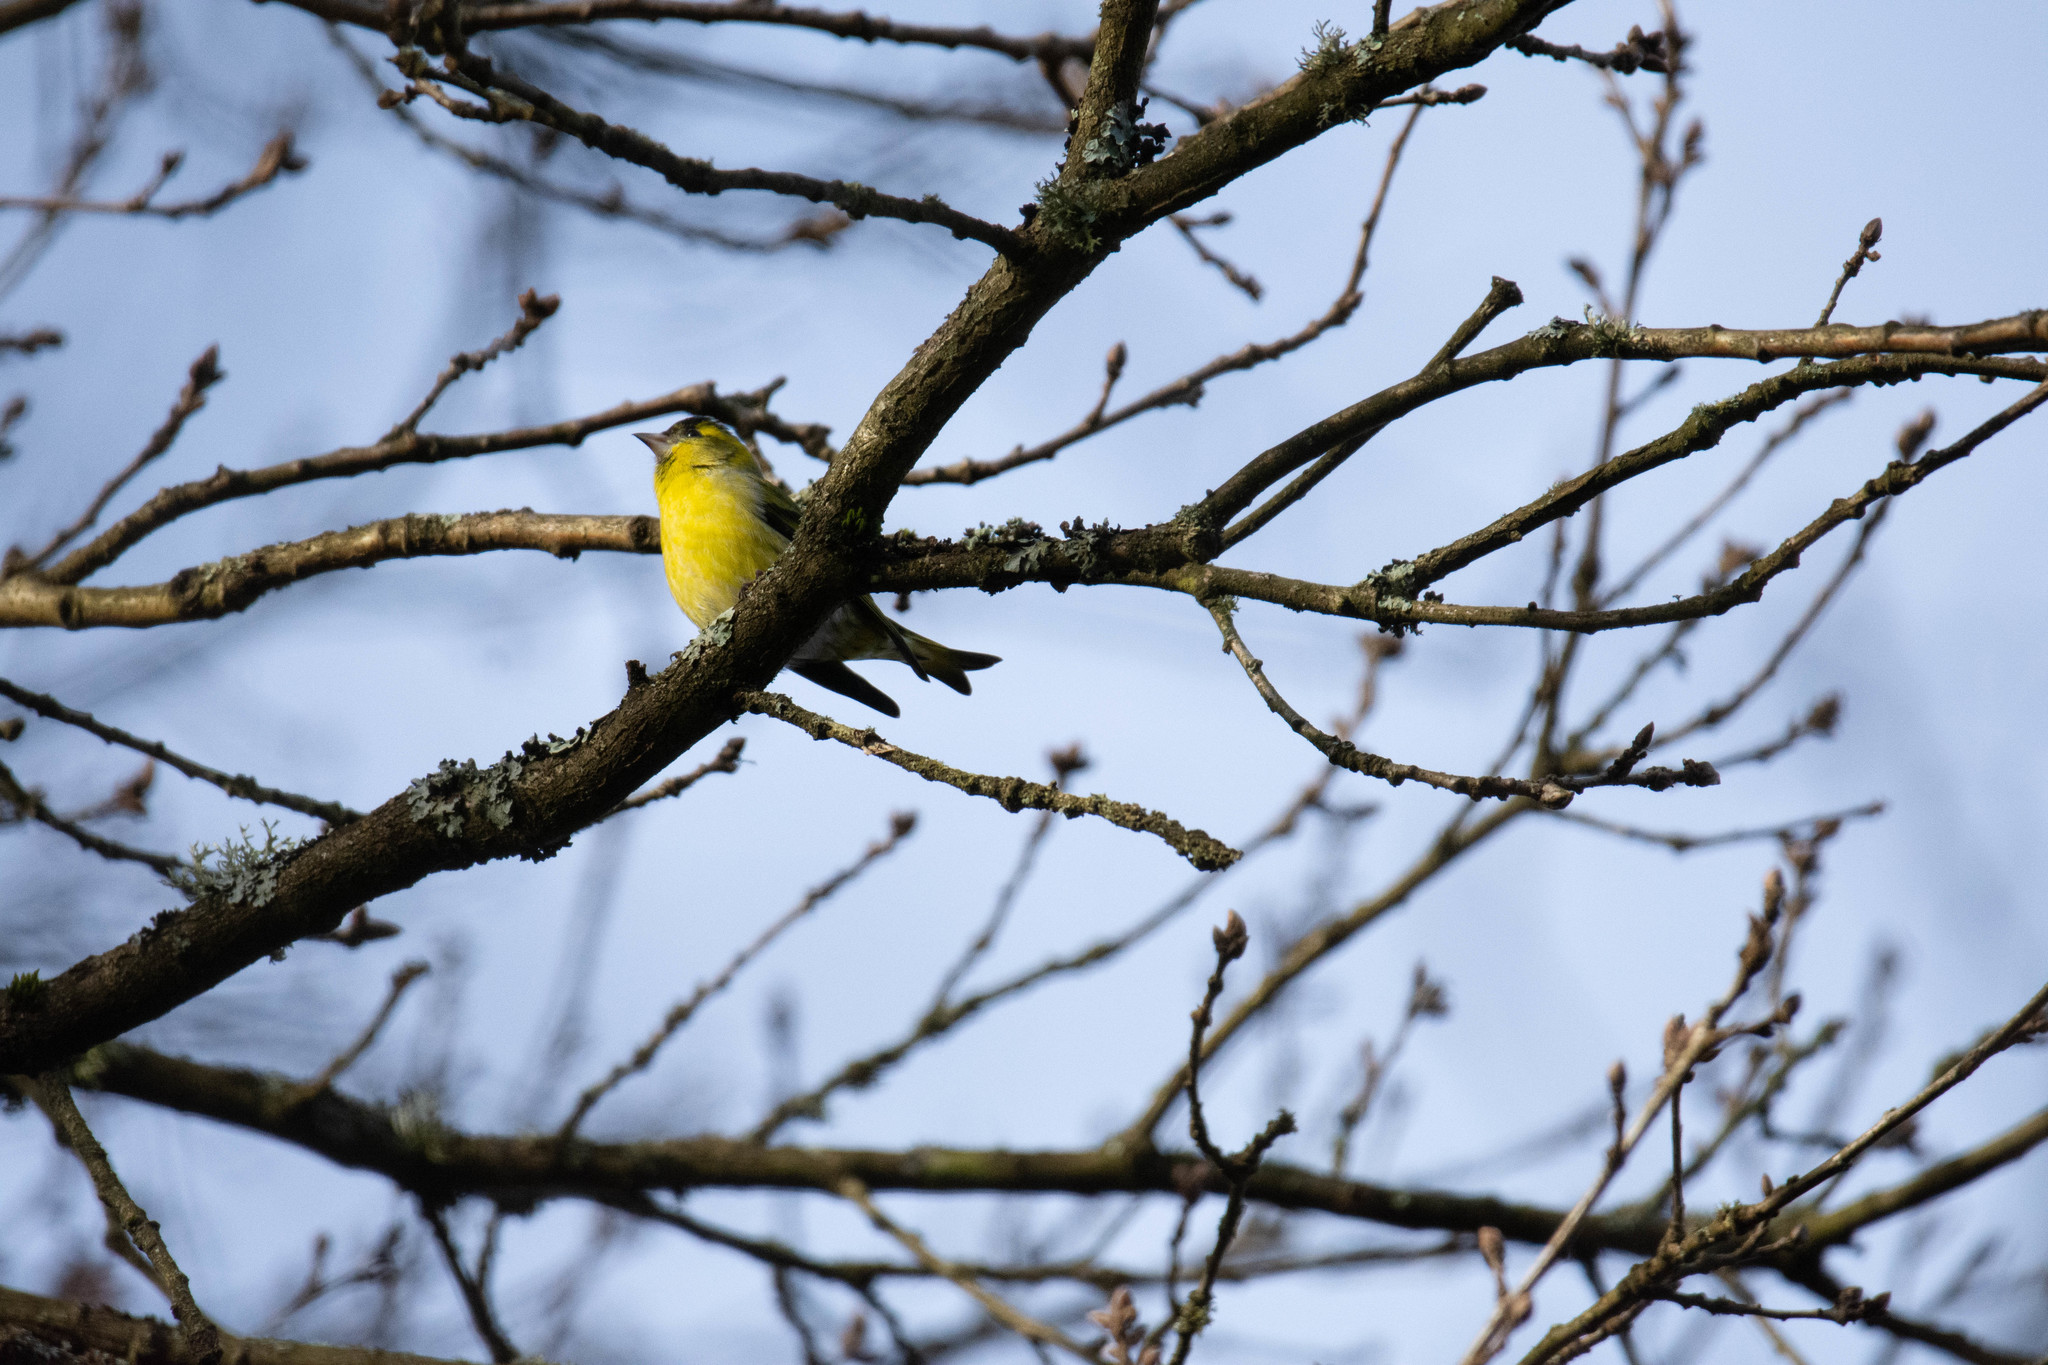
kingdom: Animalia
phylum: Chordata
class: Aves
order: Passeriformes
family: Fringillidae
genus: Spinus
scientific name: Spinus spinus
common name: Eurasian siskin
